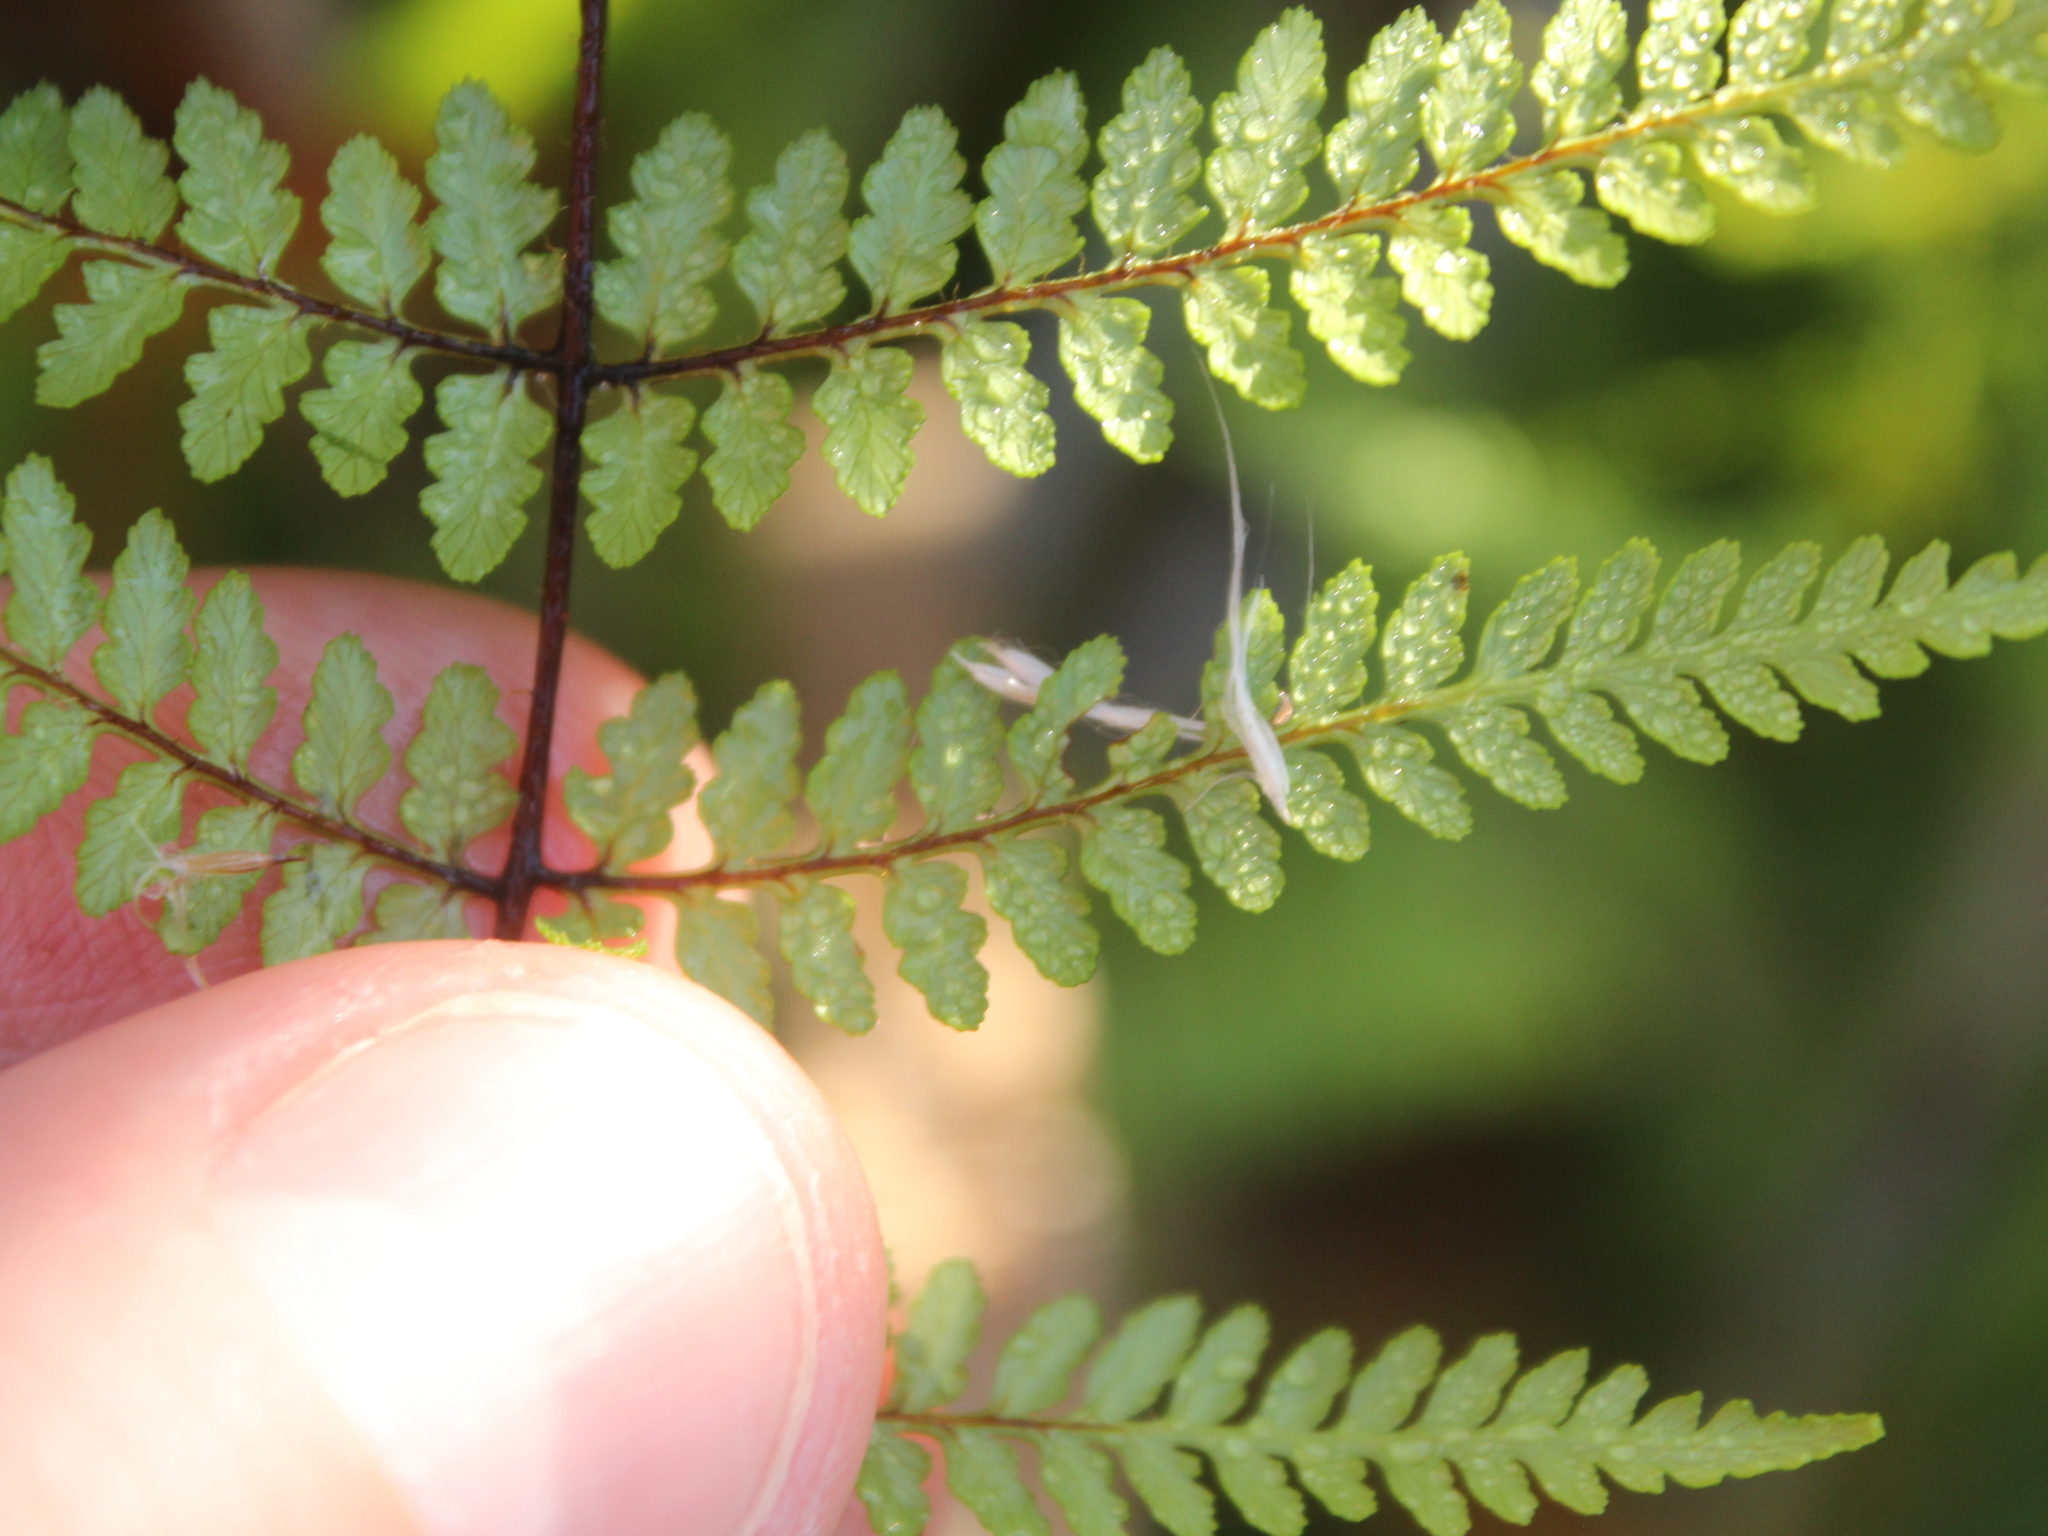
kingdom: Plantae
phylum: Tracheophyta
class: Polypodiopsida
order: Polypodiales
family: Dennstaedtiaceae
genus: Hiya
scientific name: Hiya distans
